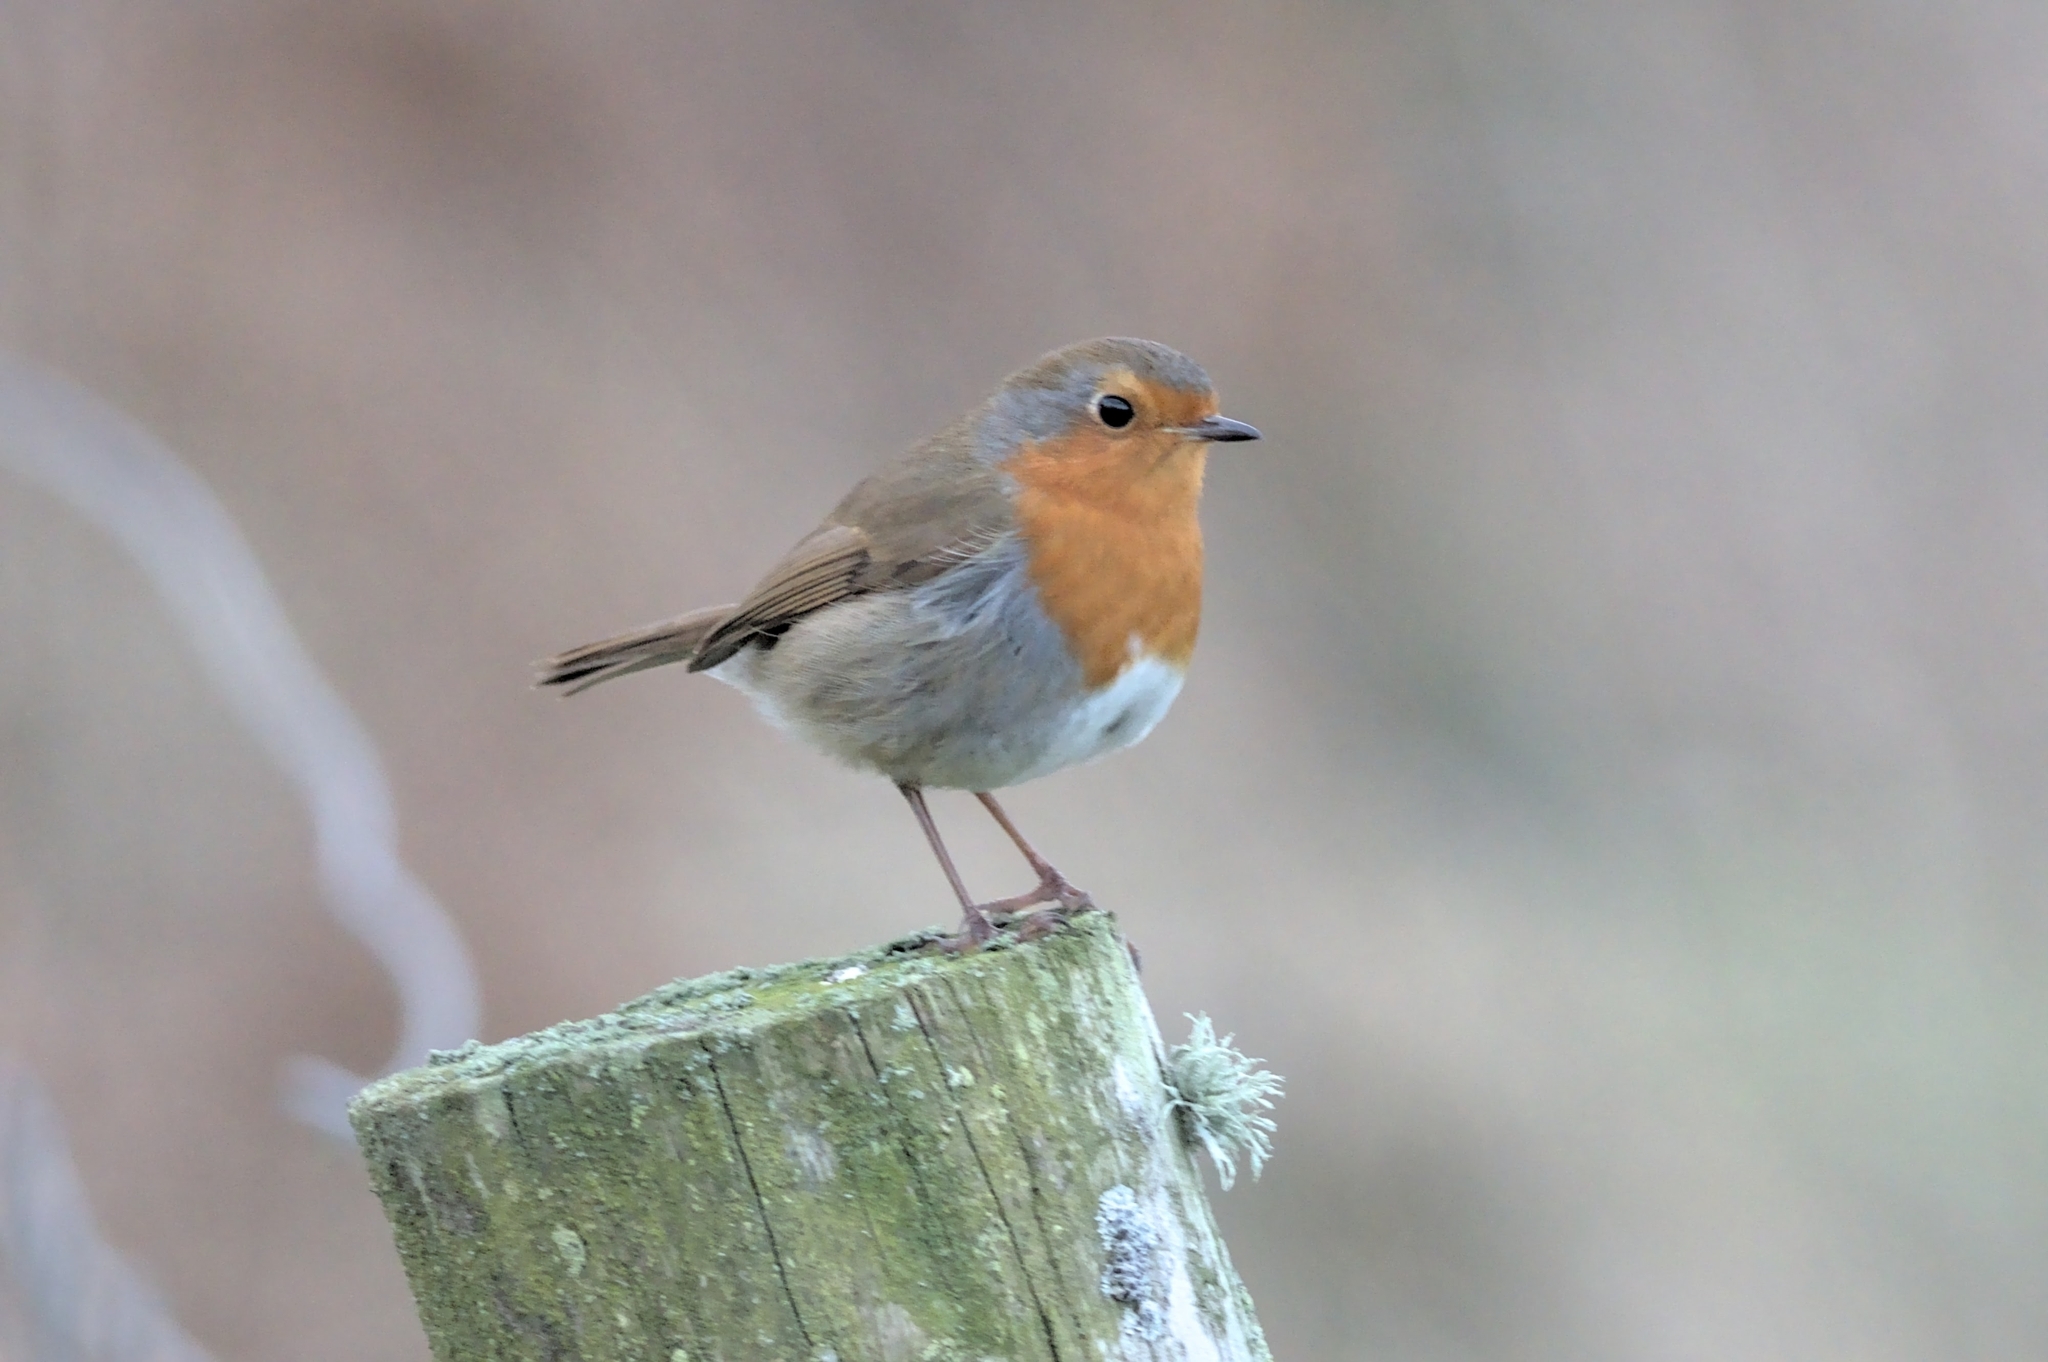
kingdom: Animalia
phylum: Chordata
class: Aves
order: Passeriformes
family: Muscicapidae
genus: Erithacus
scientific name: Erithacus rubecula
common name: European robin
